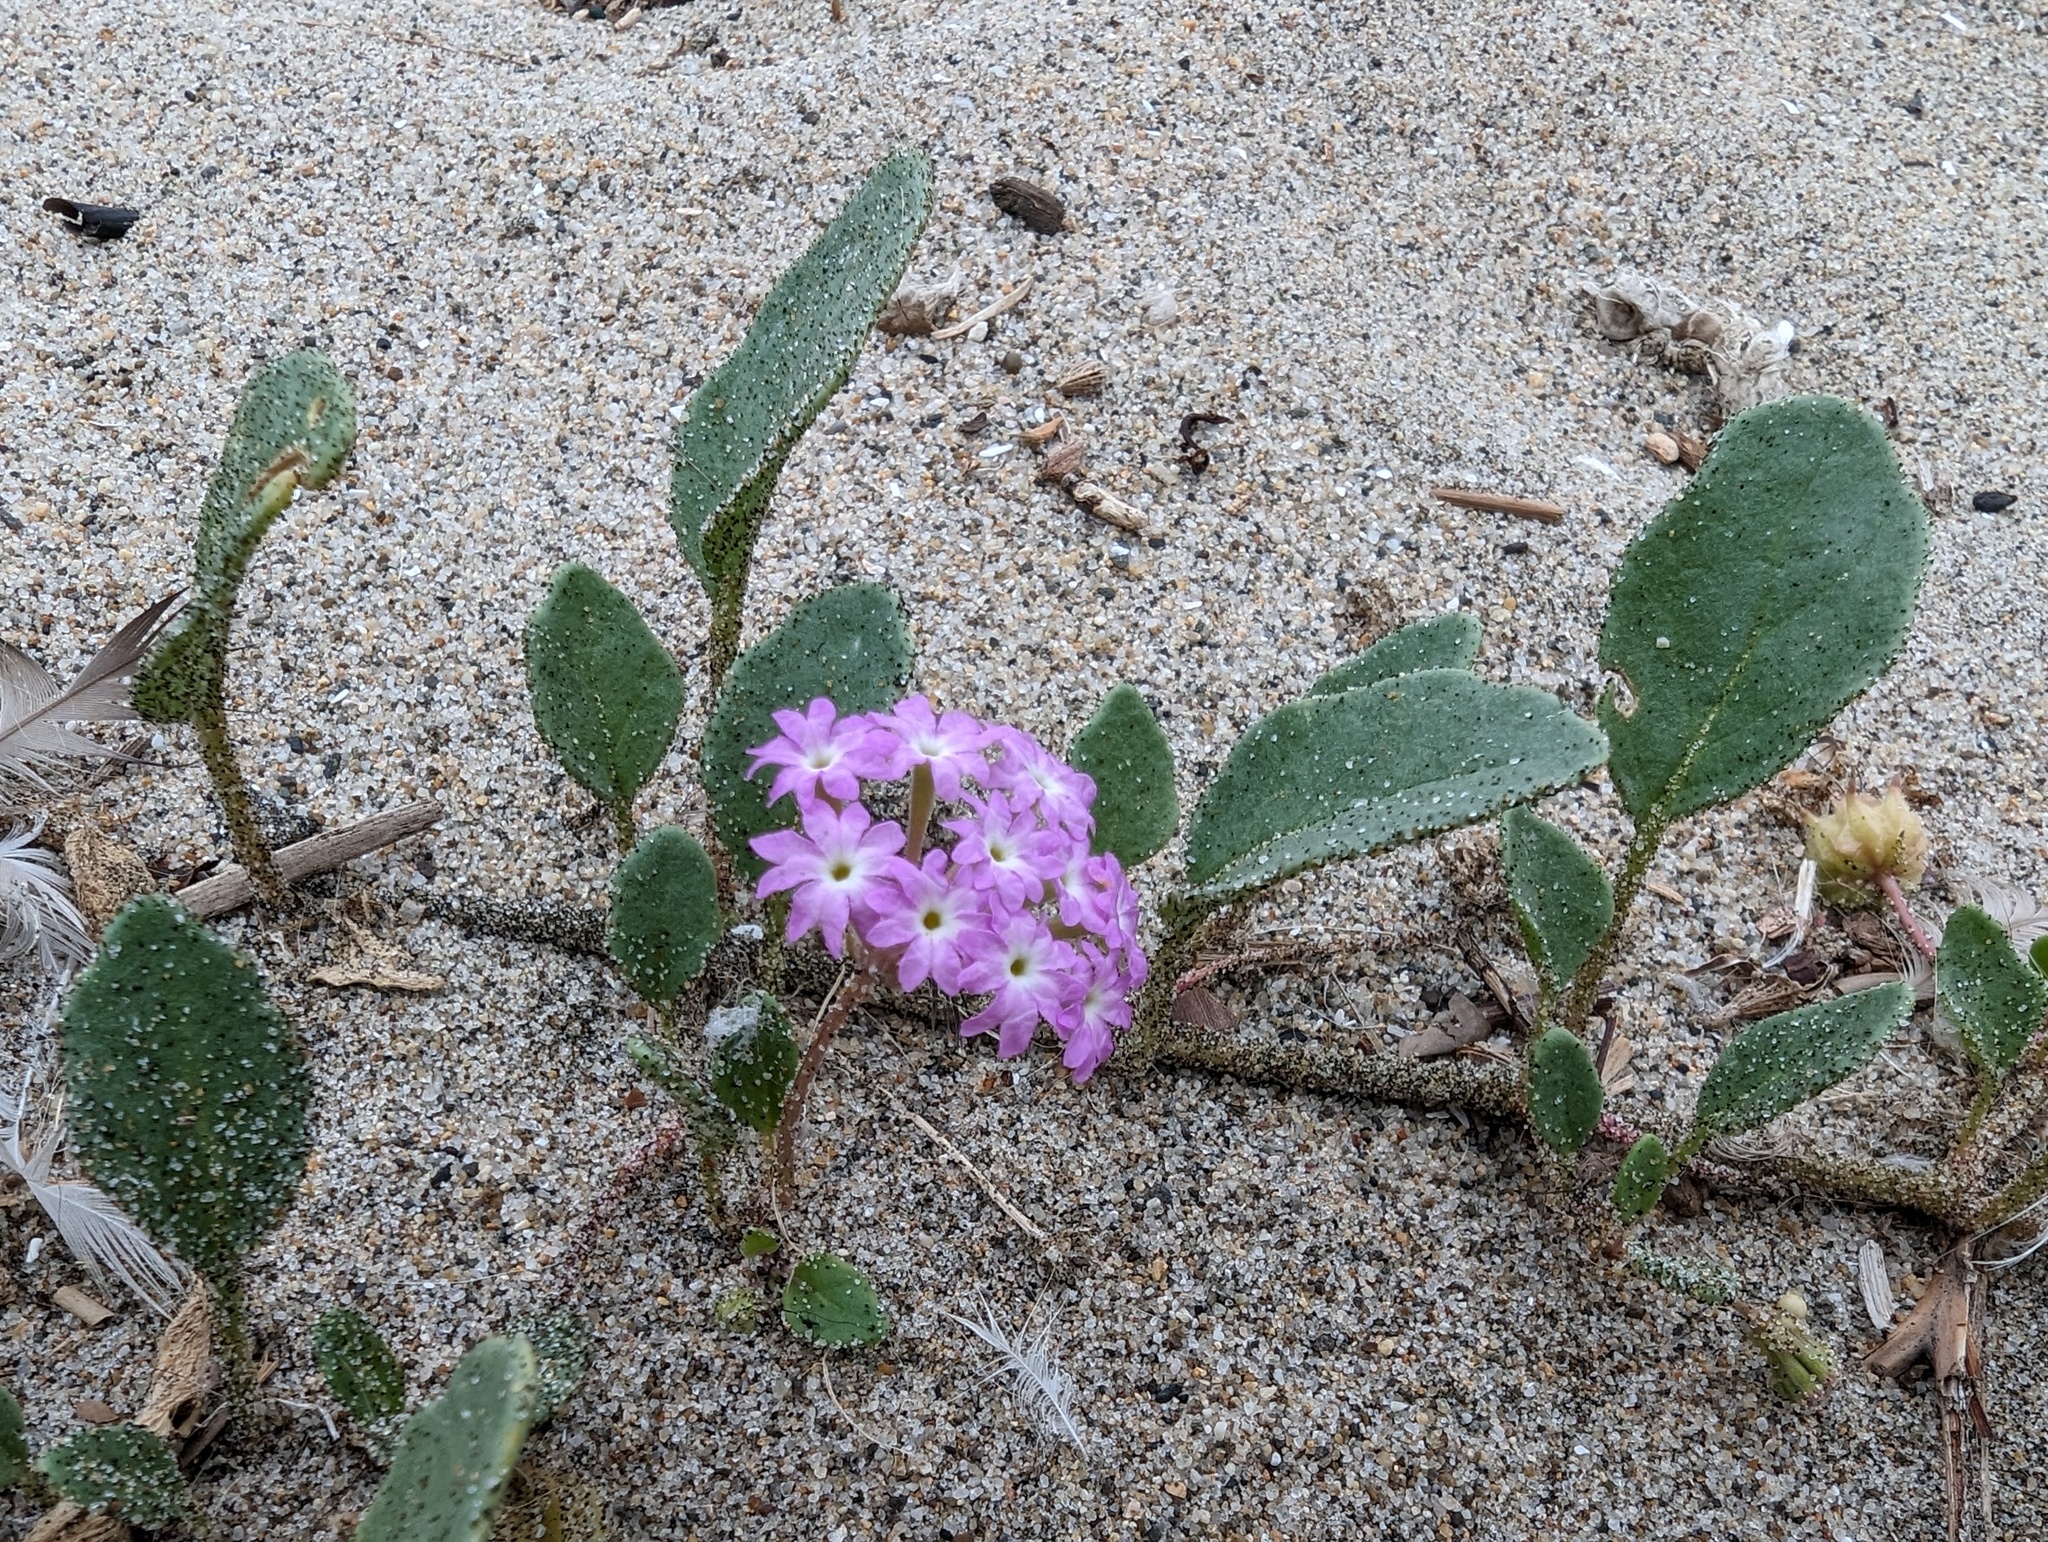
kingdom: Plantae
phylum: Tracheophyta
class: Magnoliopsida
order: Caryophyllales
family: Nyctaginaceae
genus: Abronia
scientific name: Abronia umbellata
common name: Sand-verbena
